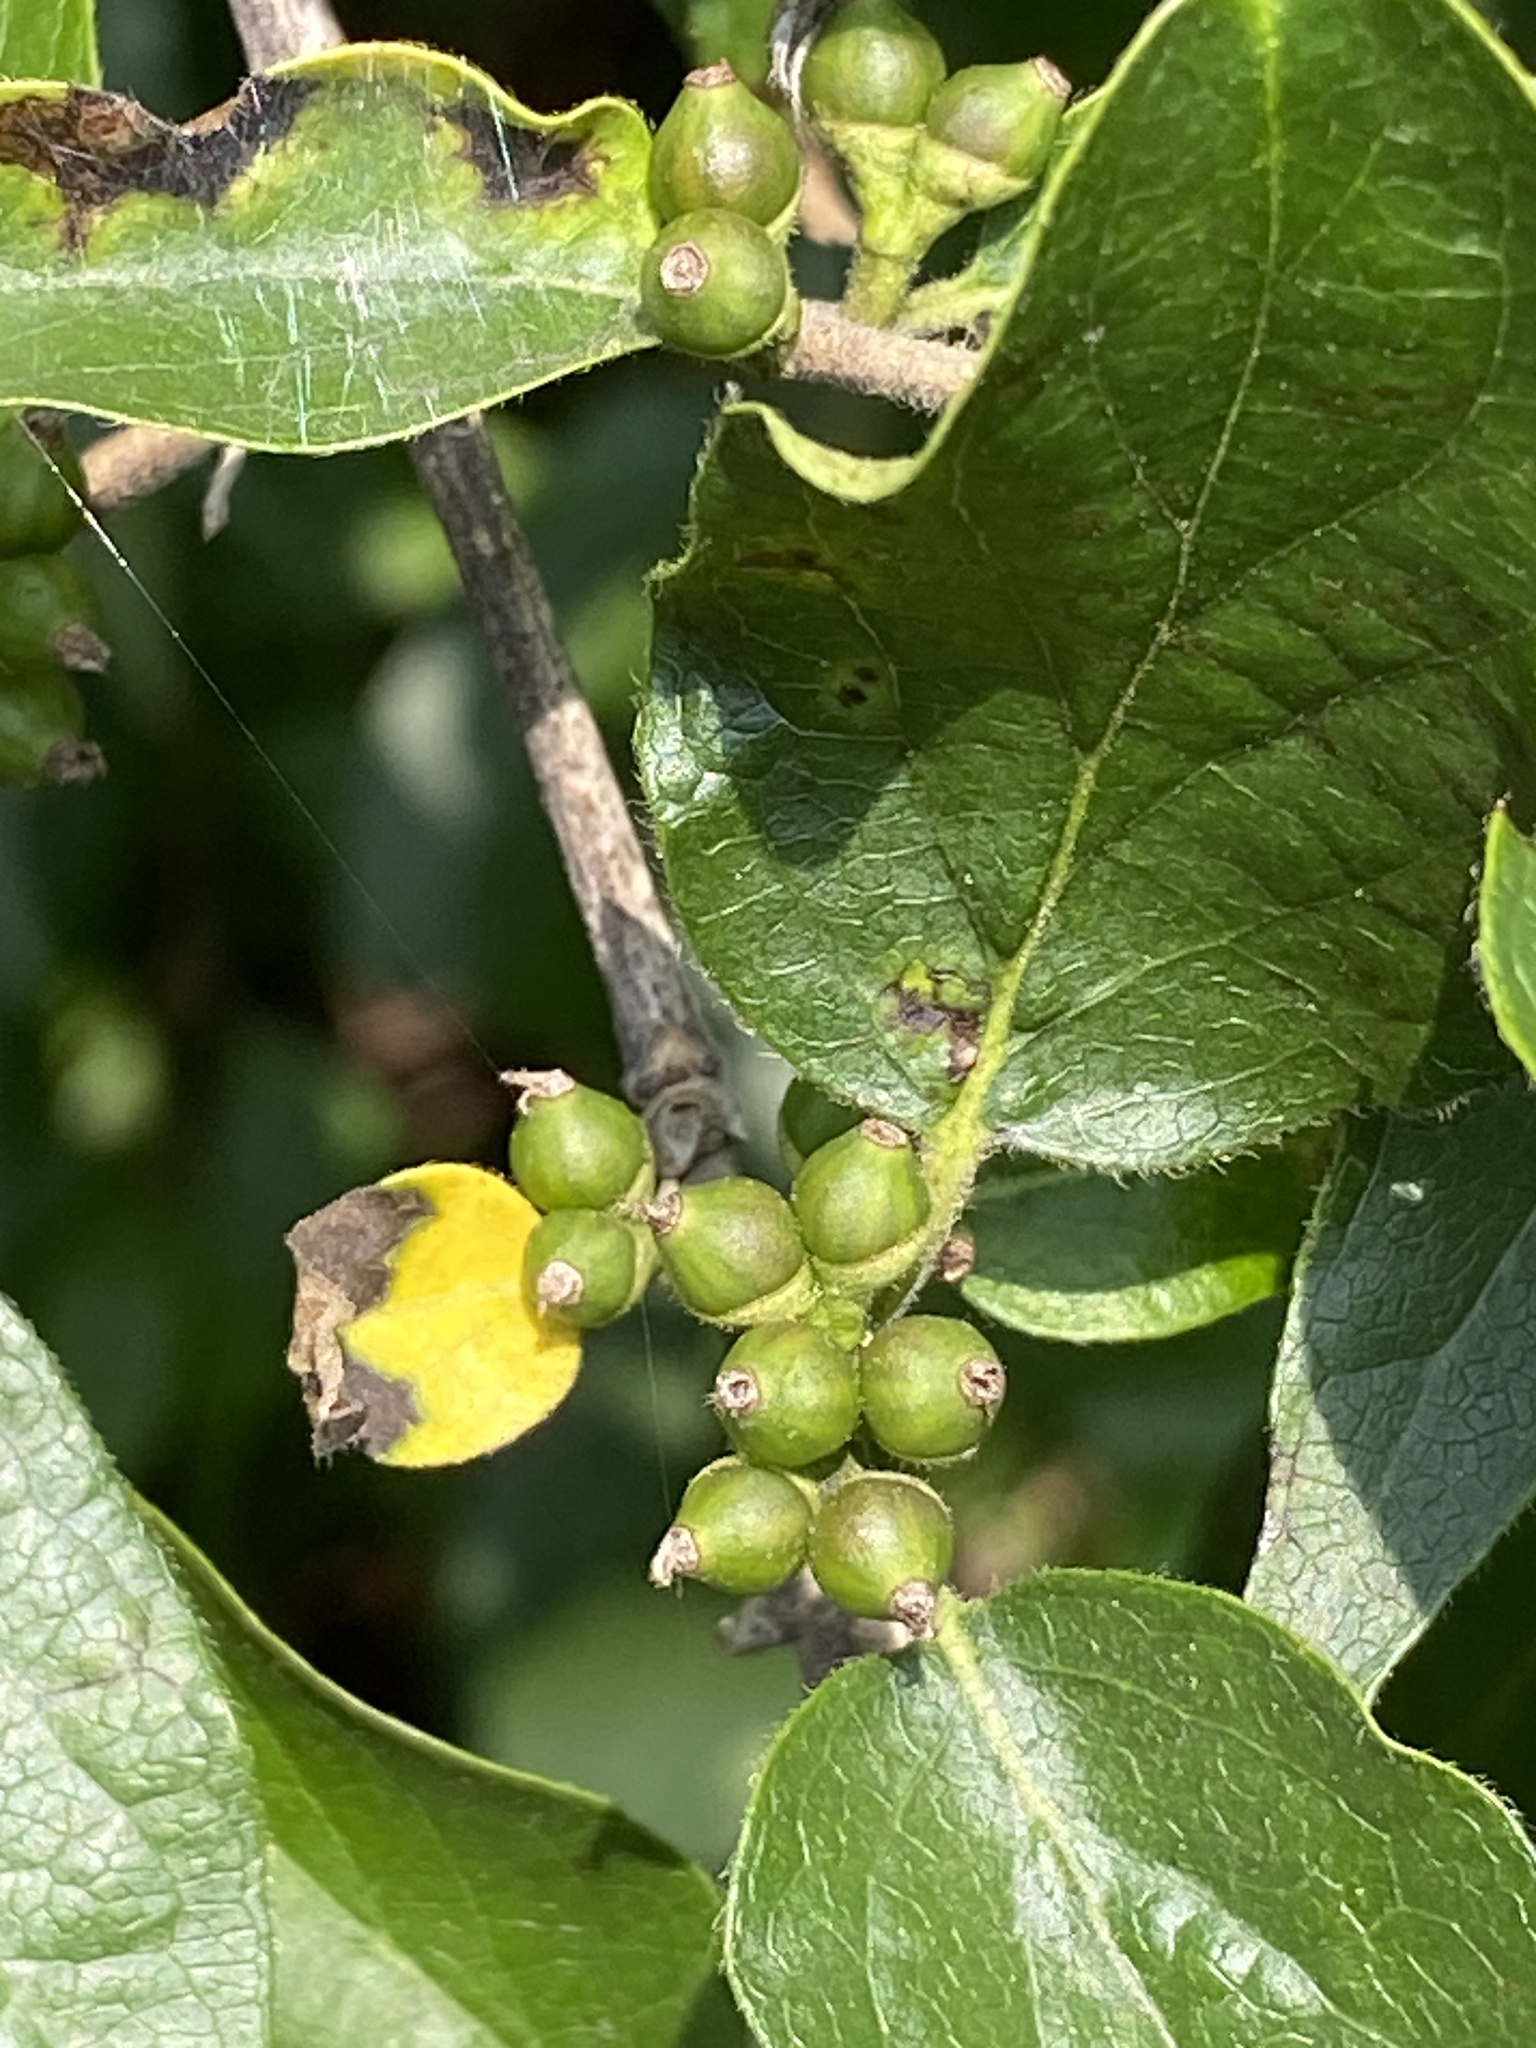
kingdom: Plantae
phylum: Tracheophyta
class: Magnoliopsida
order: Dipsacales
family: Caprifoliaceae
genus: Lonicera
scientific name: Lonicera maackii
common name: Amur honeysuckle
